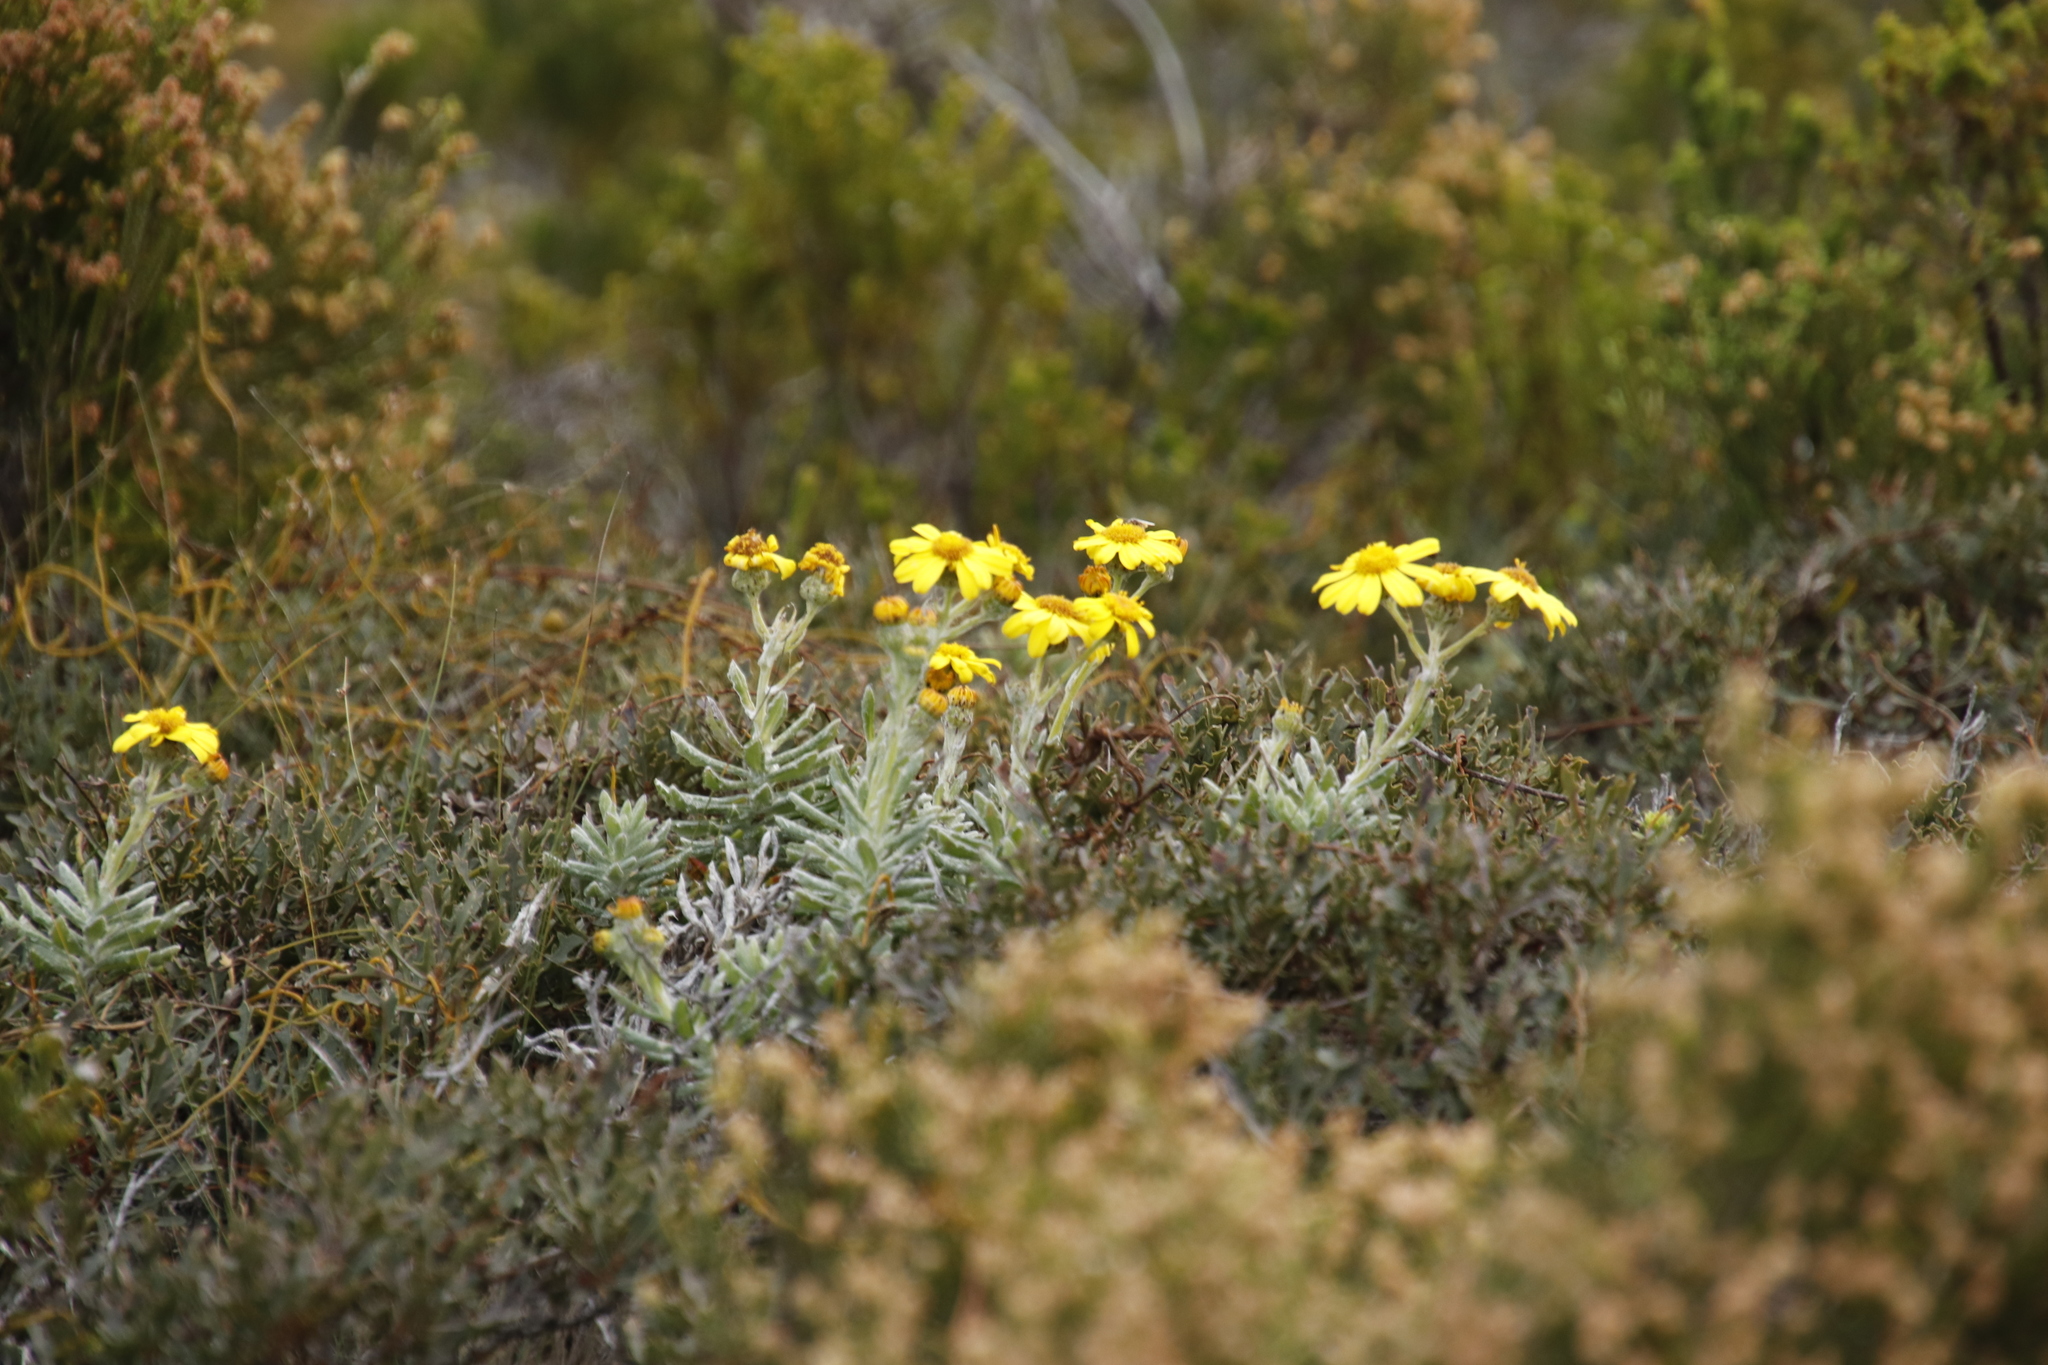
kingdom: Plantae
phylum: Tracheophyta
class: Magnoliopsida
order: Asterales
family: Asteraceae
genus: Senecio
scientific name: Senecio arniciflorus
